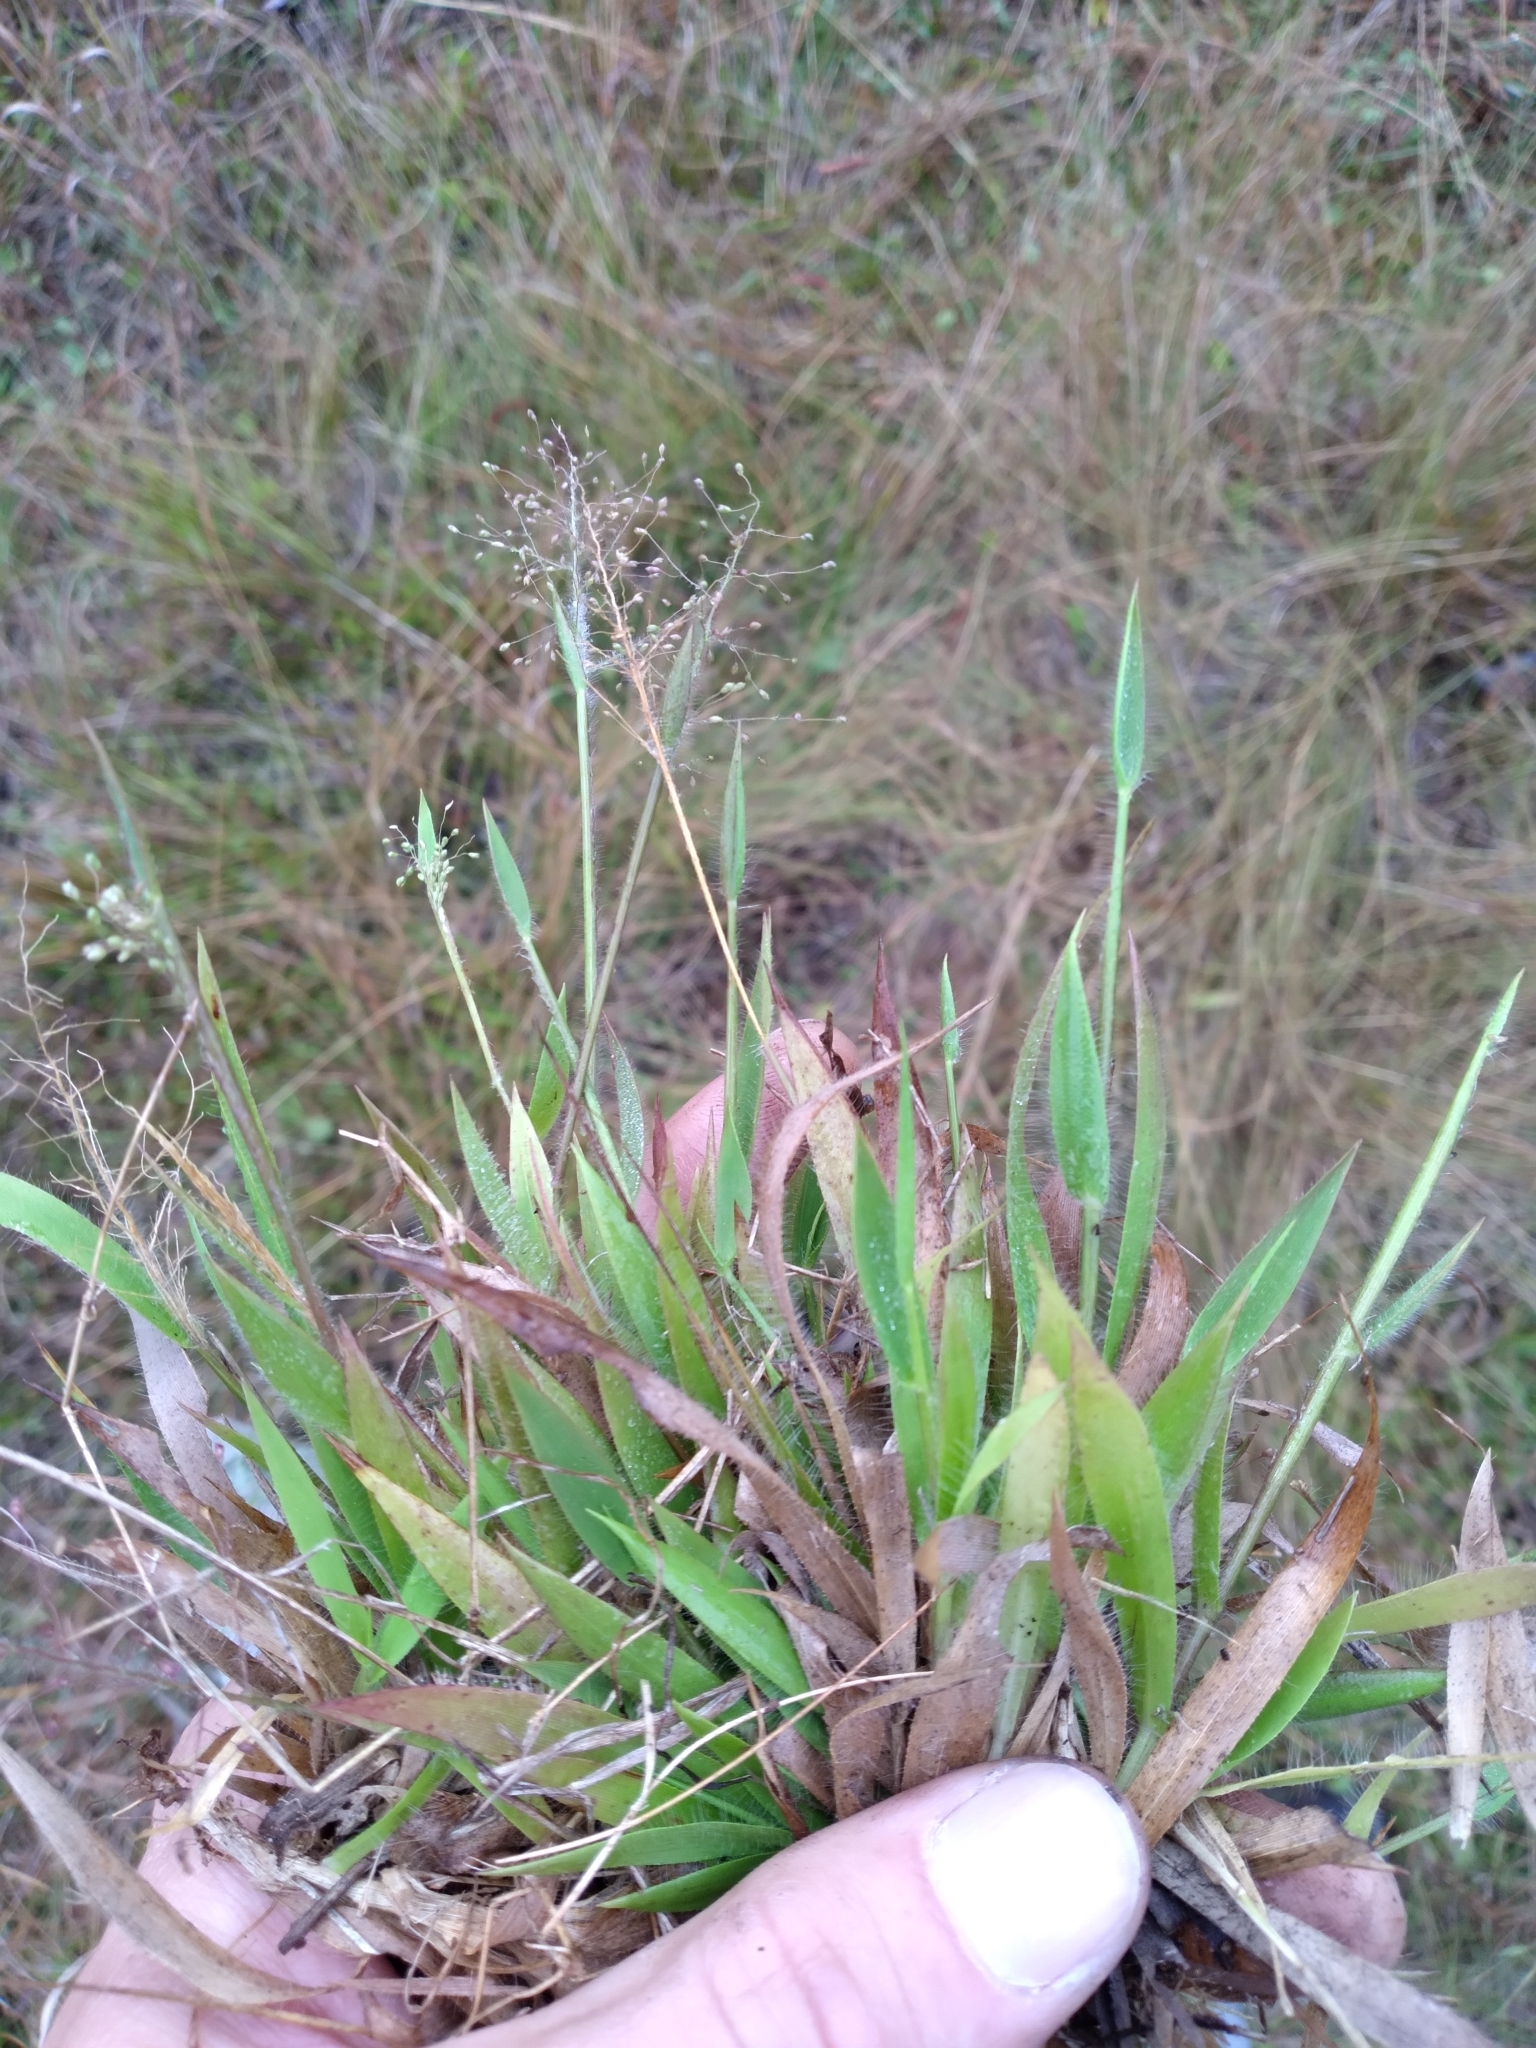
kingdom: Plantae
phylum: Tracheophyta
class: Liliopsida
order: Poales
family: Poaceae
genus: Dichanthelium
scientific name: Dichanthelium strigosum
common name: Cushion-tuft panic grass
